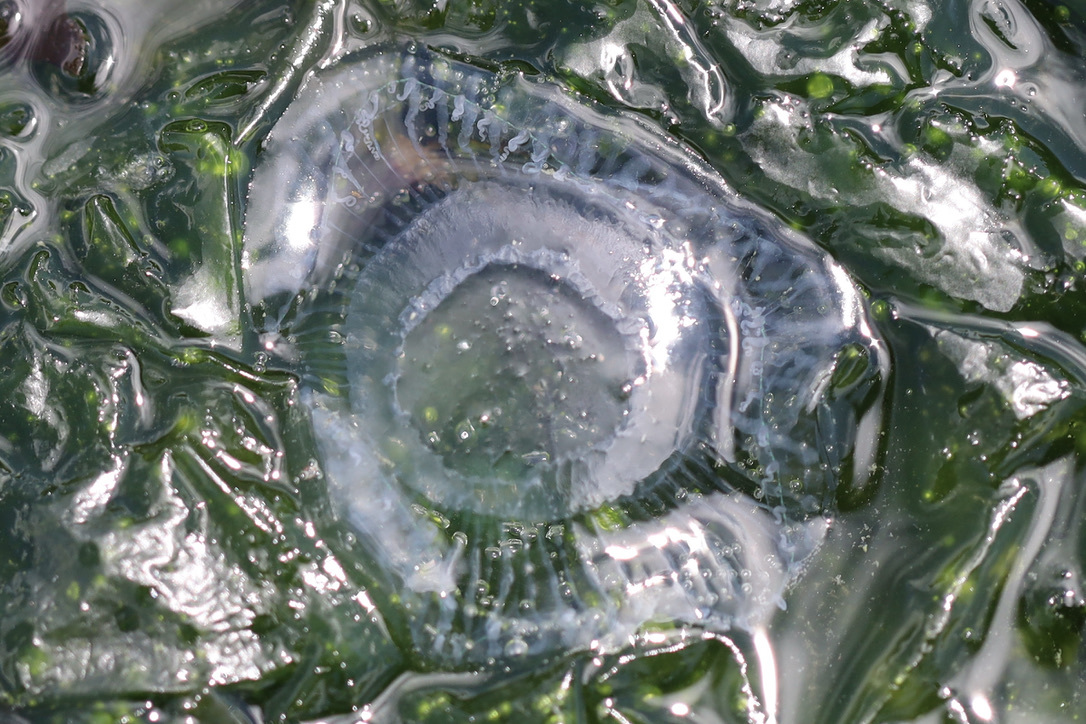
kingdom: Animalia
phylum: Cnidaria
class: Hydrozoa
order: Leptothecata
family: Aequoreidae
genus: Aequorea
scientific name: Aequorea victoria
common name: Water jellyfish
